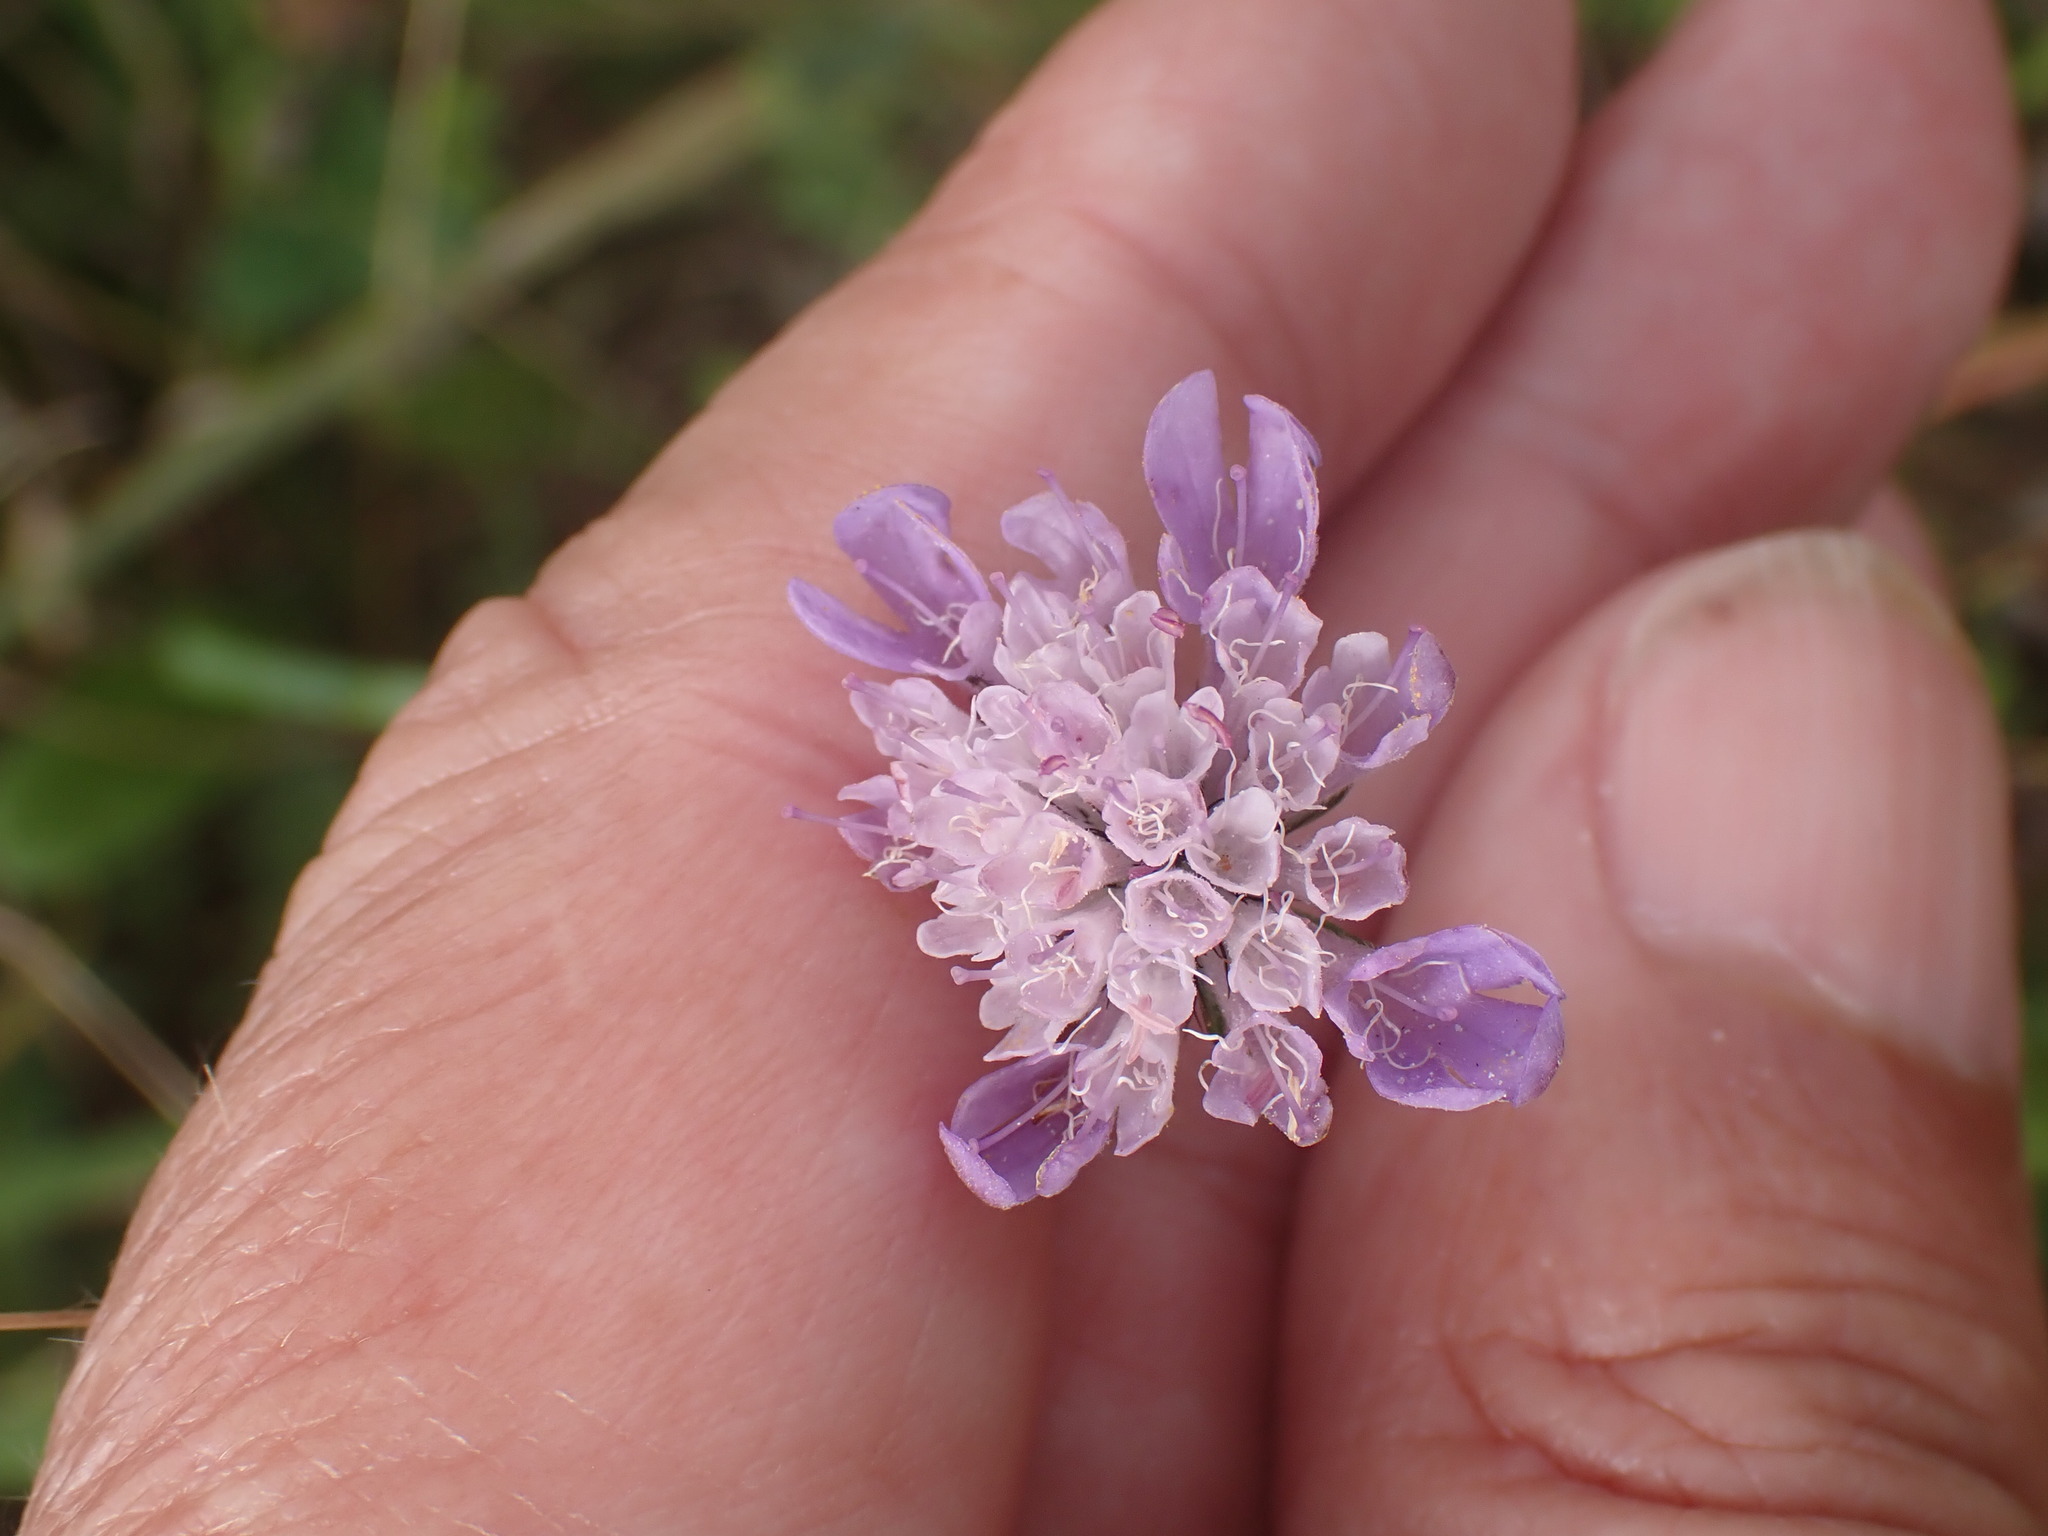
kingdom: Plantae
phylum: Tracheophyta
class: Magnoliopsida
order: Dipsacales
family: Caprifoliaceae
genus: Scabiosa
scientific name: Scabiosa columbaria
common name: Small scabious
